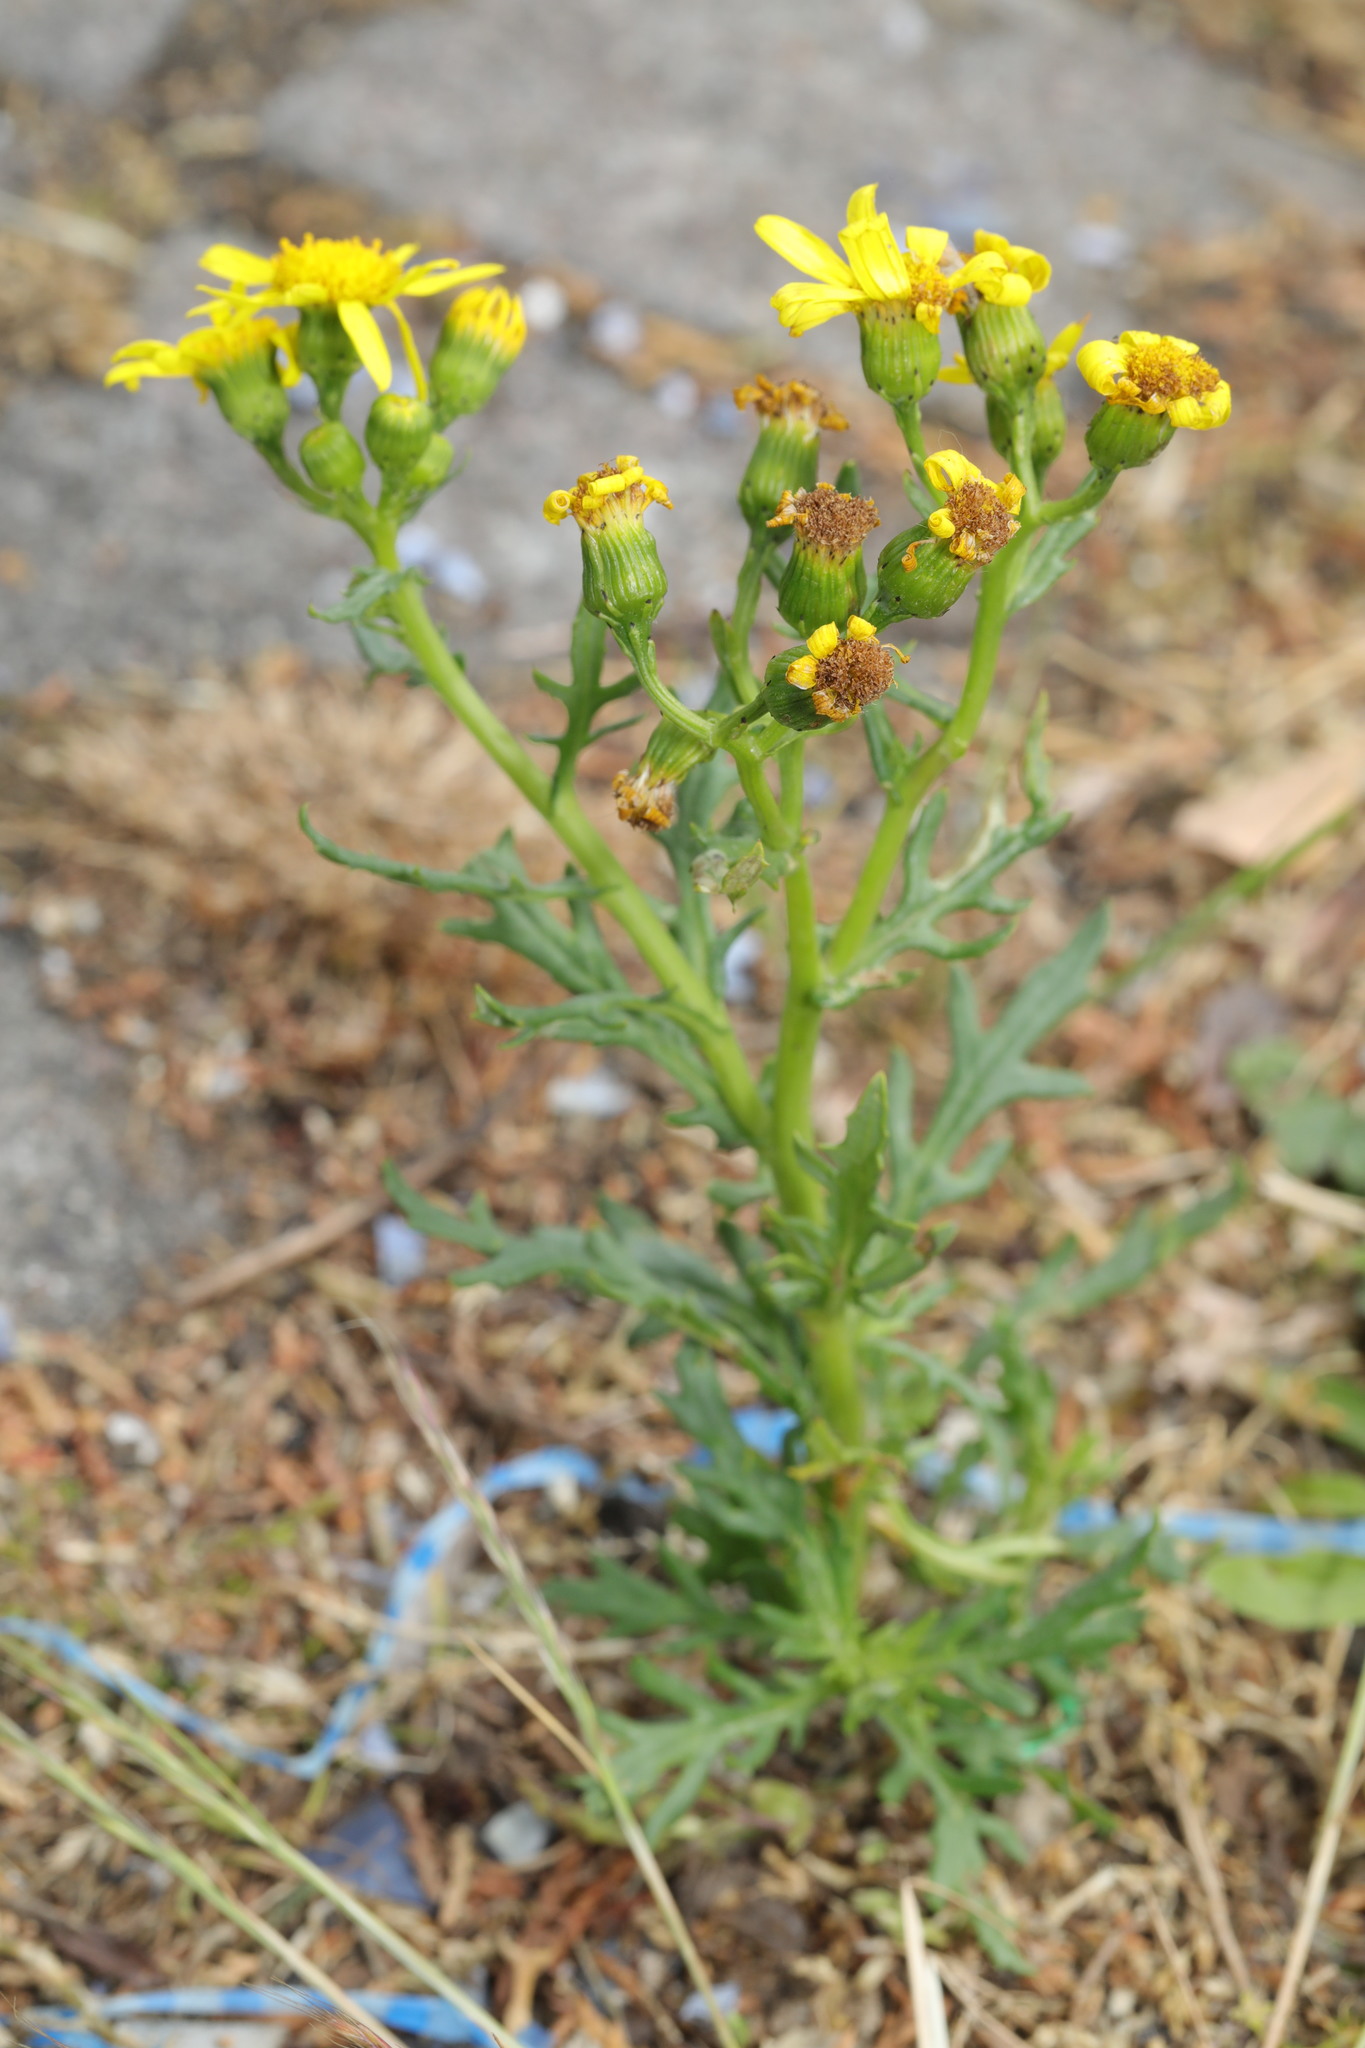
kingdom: Plantae
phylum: Tracheophyta
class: Magnoliopsida
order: Asterales
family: Asteraceae
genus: Senecio
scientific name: Senecio squalidus
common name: Oxford ragwort
